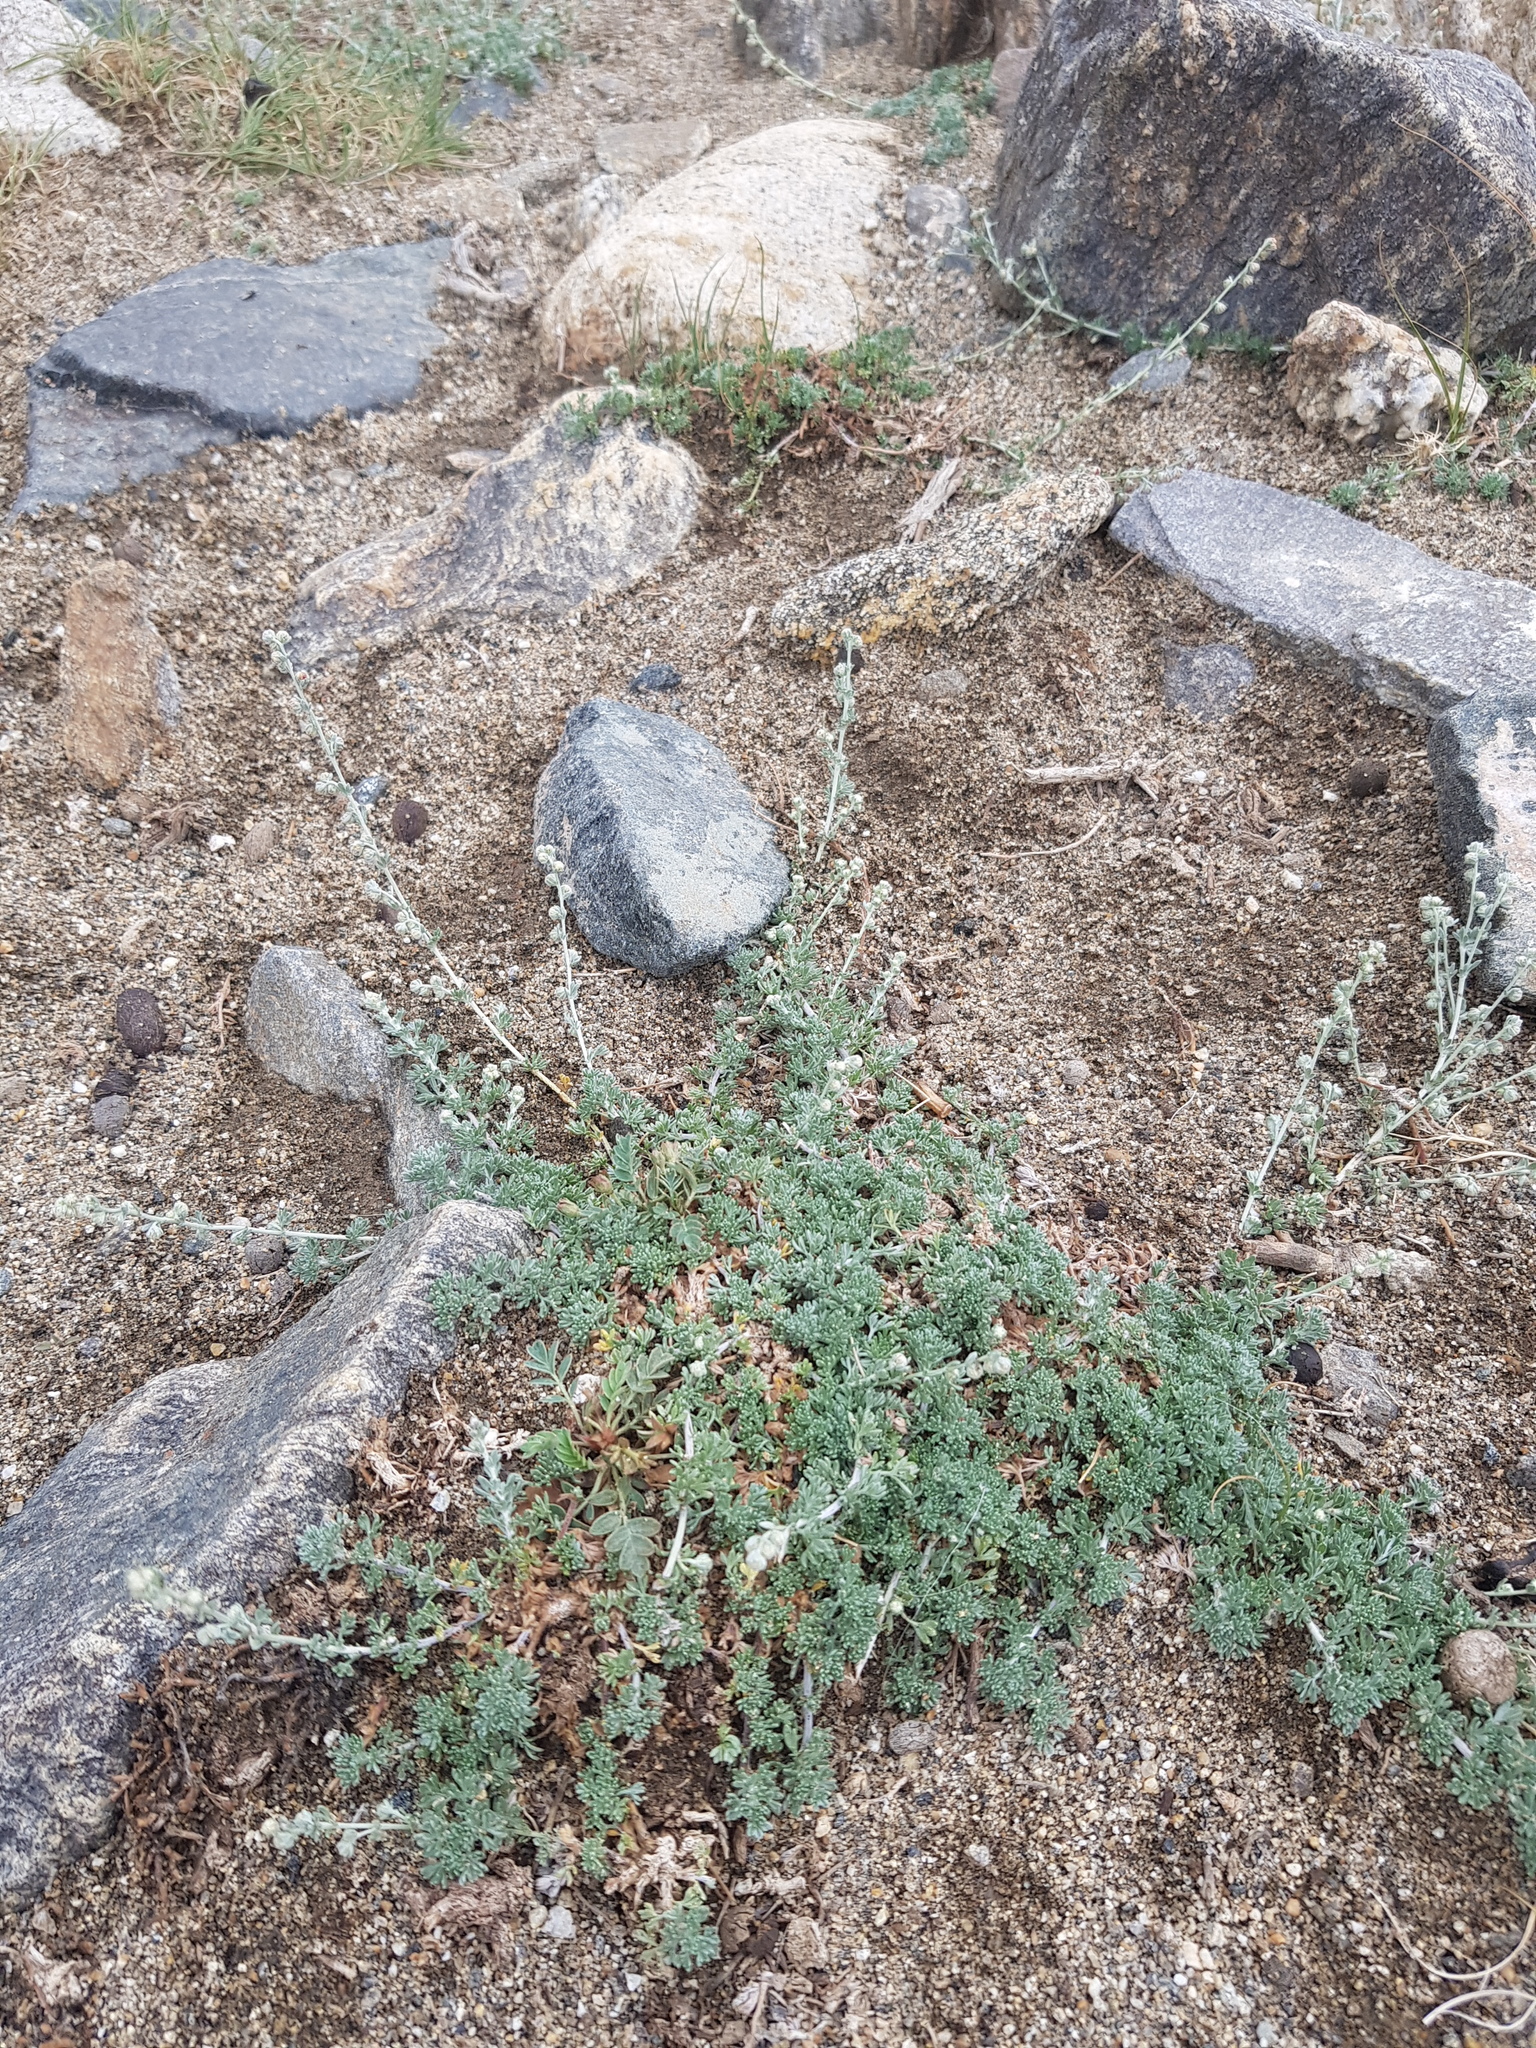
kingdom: Plantae
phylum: Tracheophyta
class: Magnoliopsida
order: Asterales
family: Asteraceae
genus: Artemisia
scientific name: Artemisia frigida
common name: Prairie sagewort
